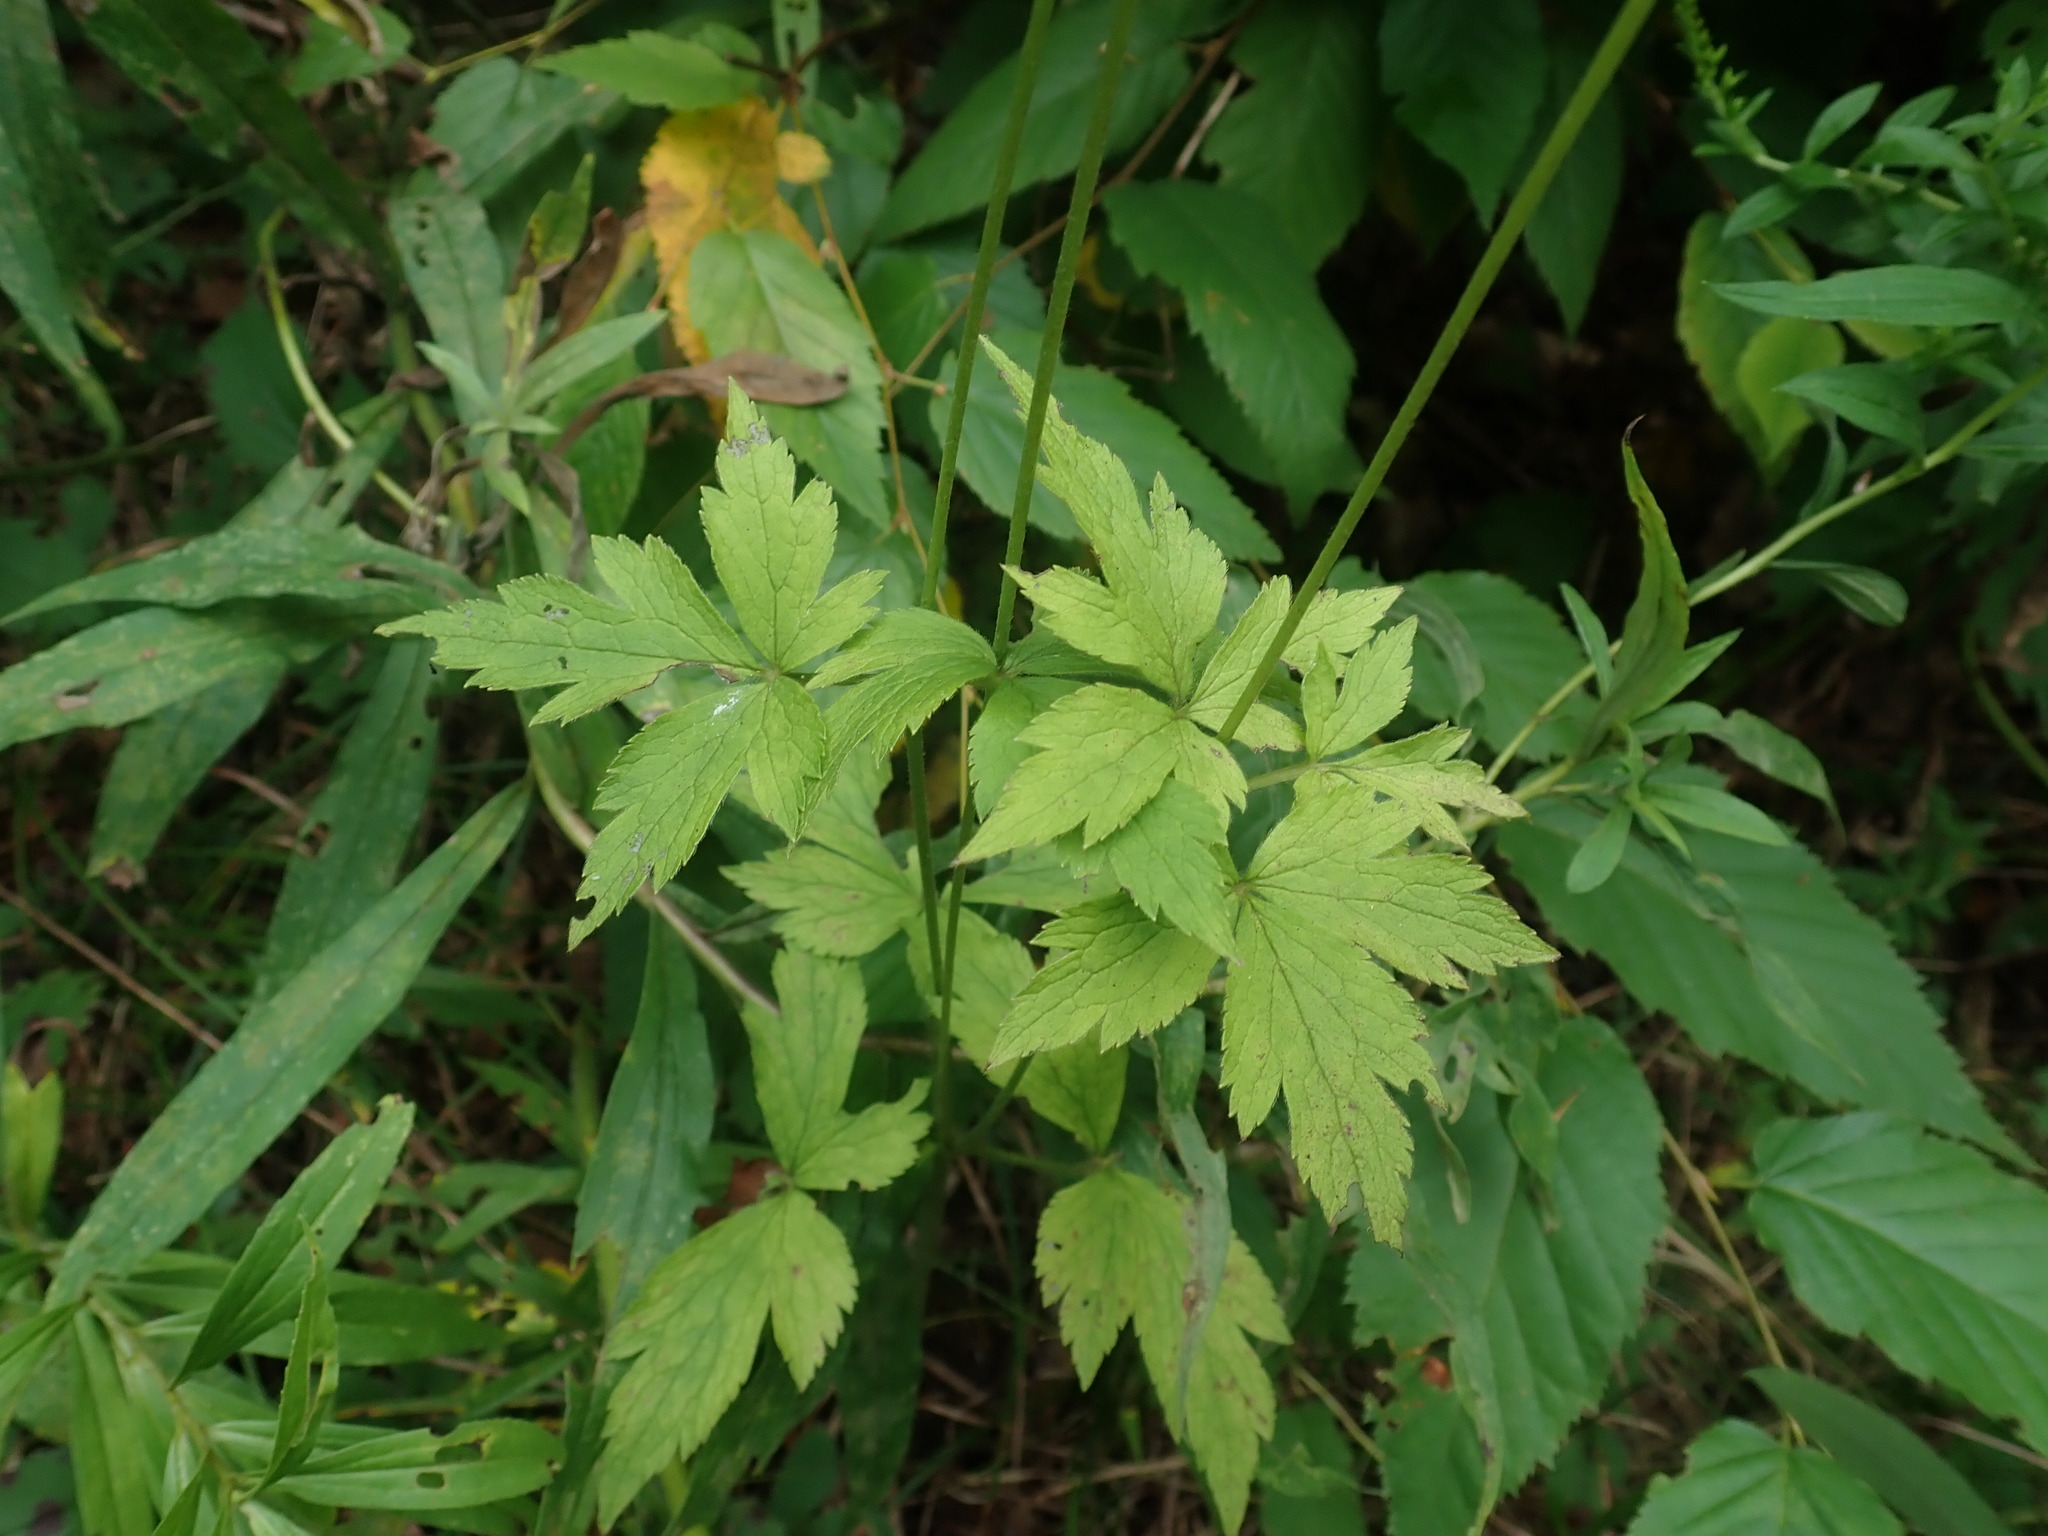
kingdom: Plantae
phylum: Tracheophyta
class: Magnoliopsida
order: Ranunculales
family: Ranunculaceae
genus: Anemone
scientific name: Anemone virginiana
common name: Tall anemone
